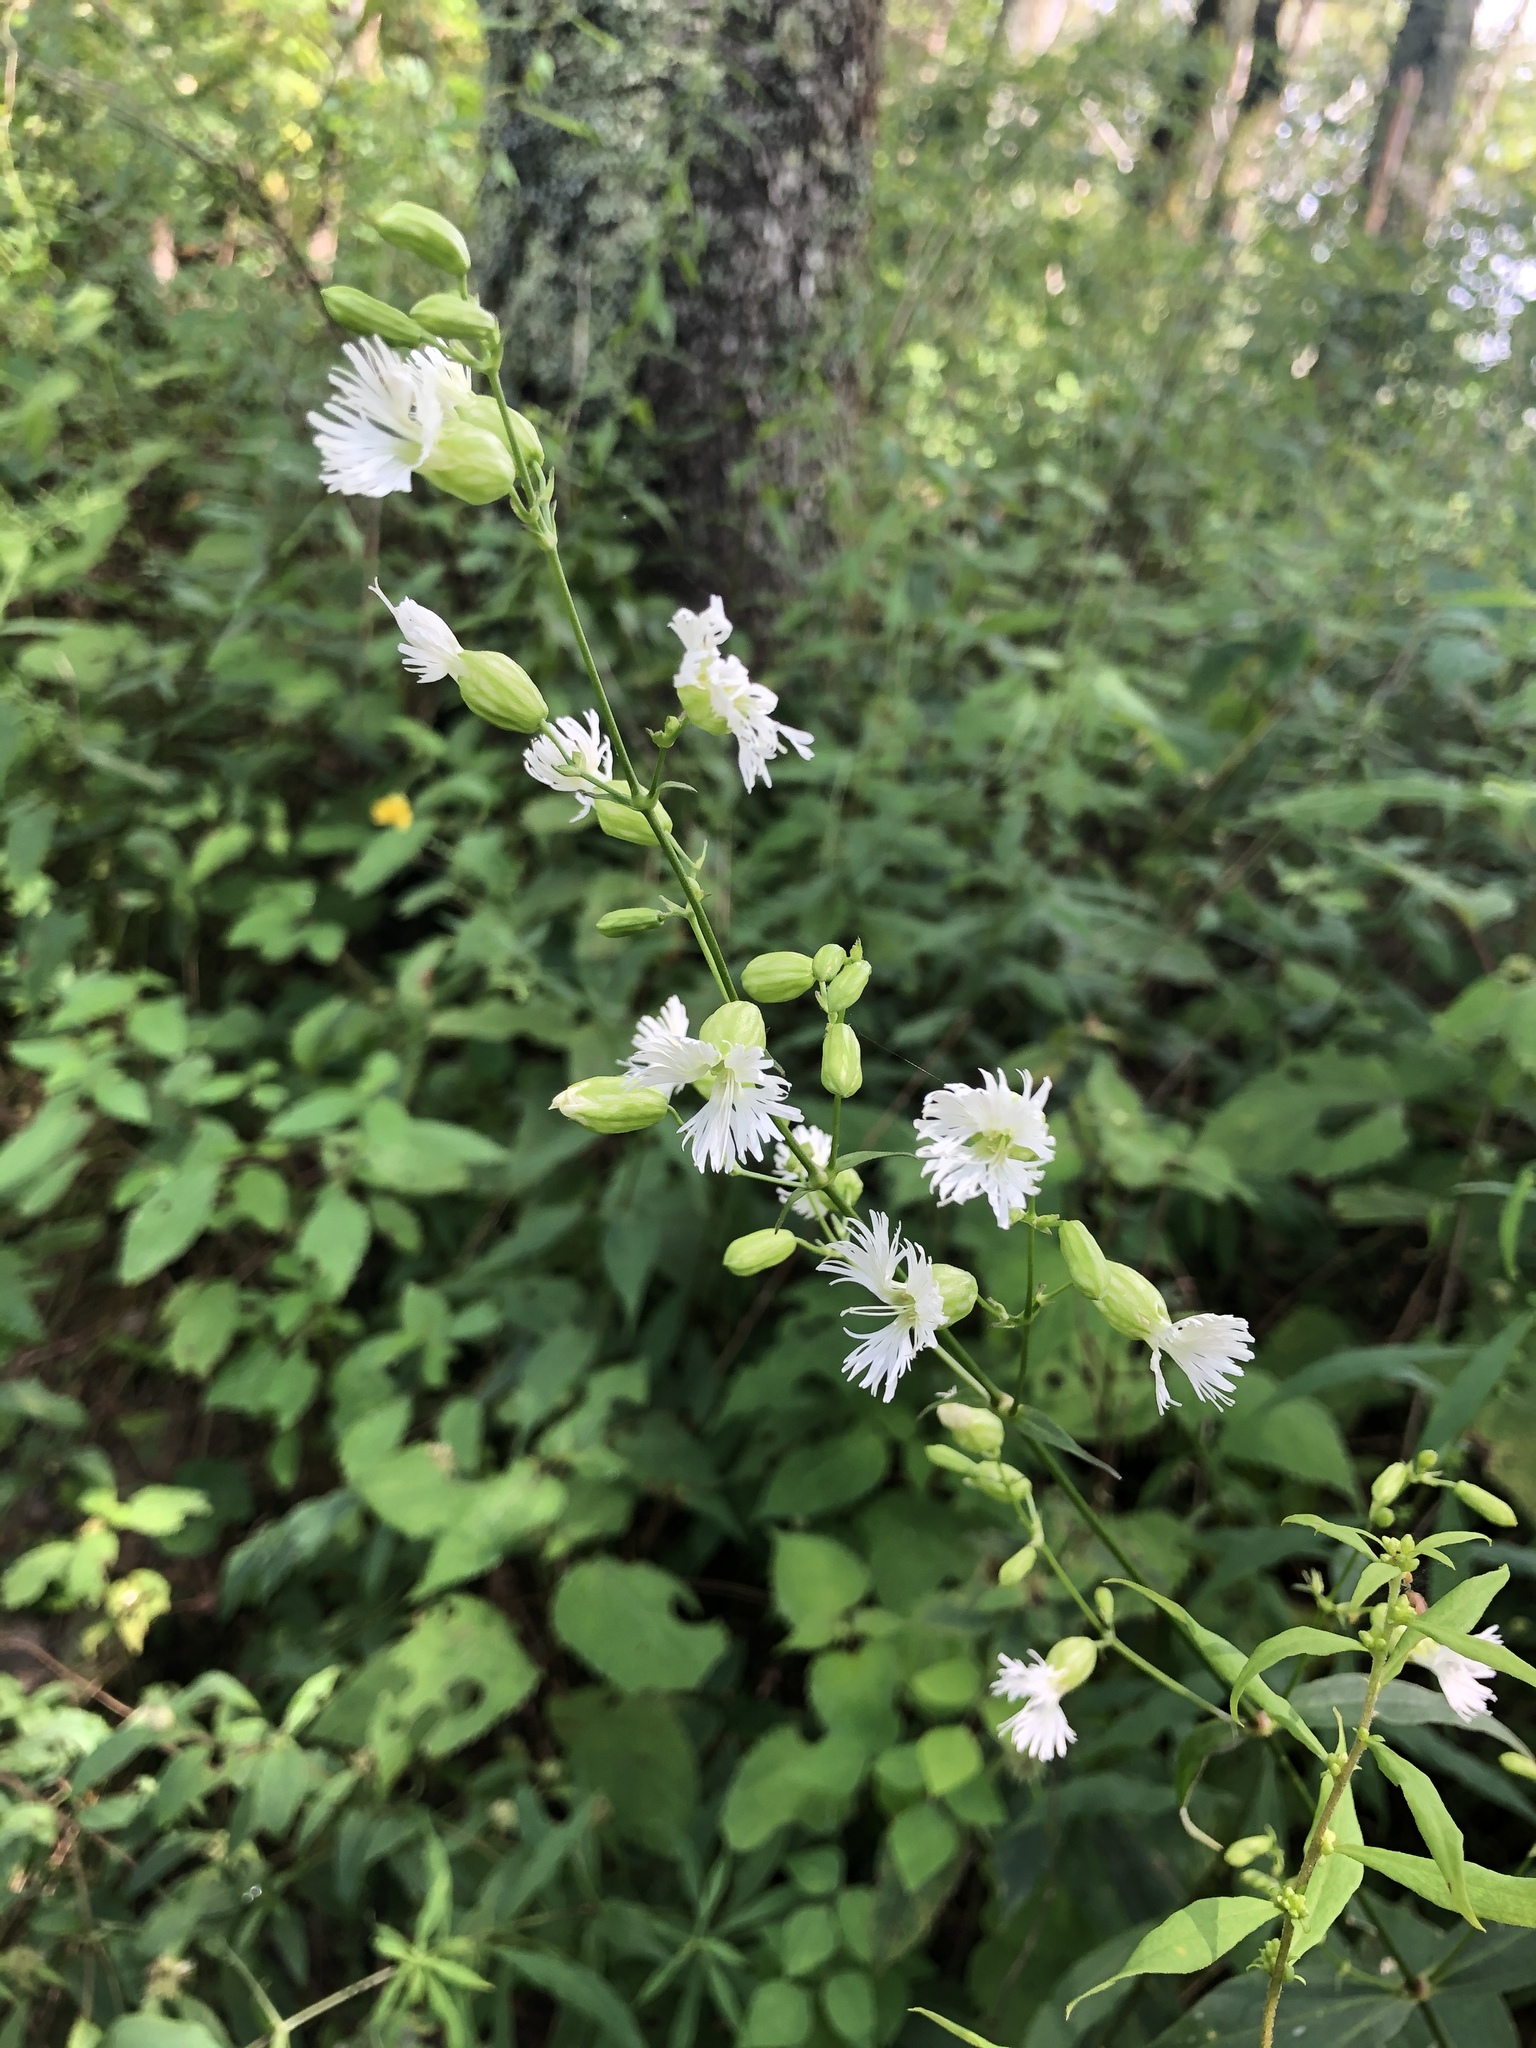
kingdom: Plantae
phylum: Tracheophyta
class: Magnoliopsida
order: Caryophyllales
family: Caryophyllaceae
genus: Silene
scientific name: Silene stellata
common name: Starry campion
